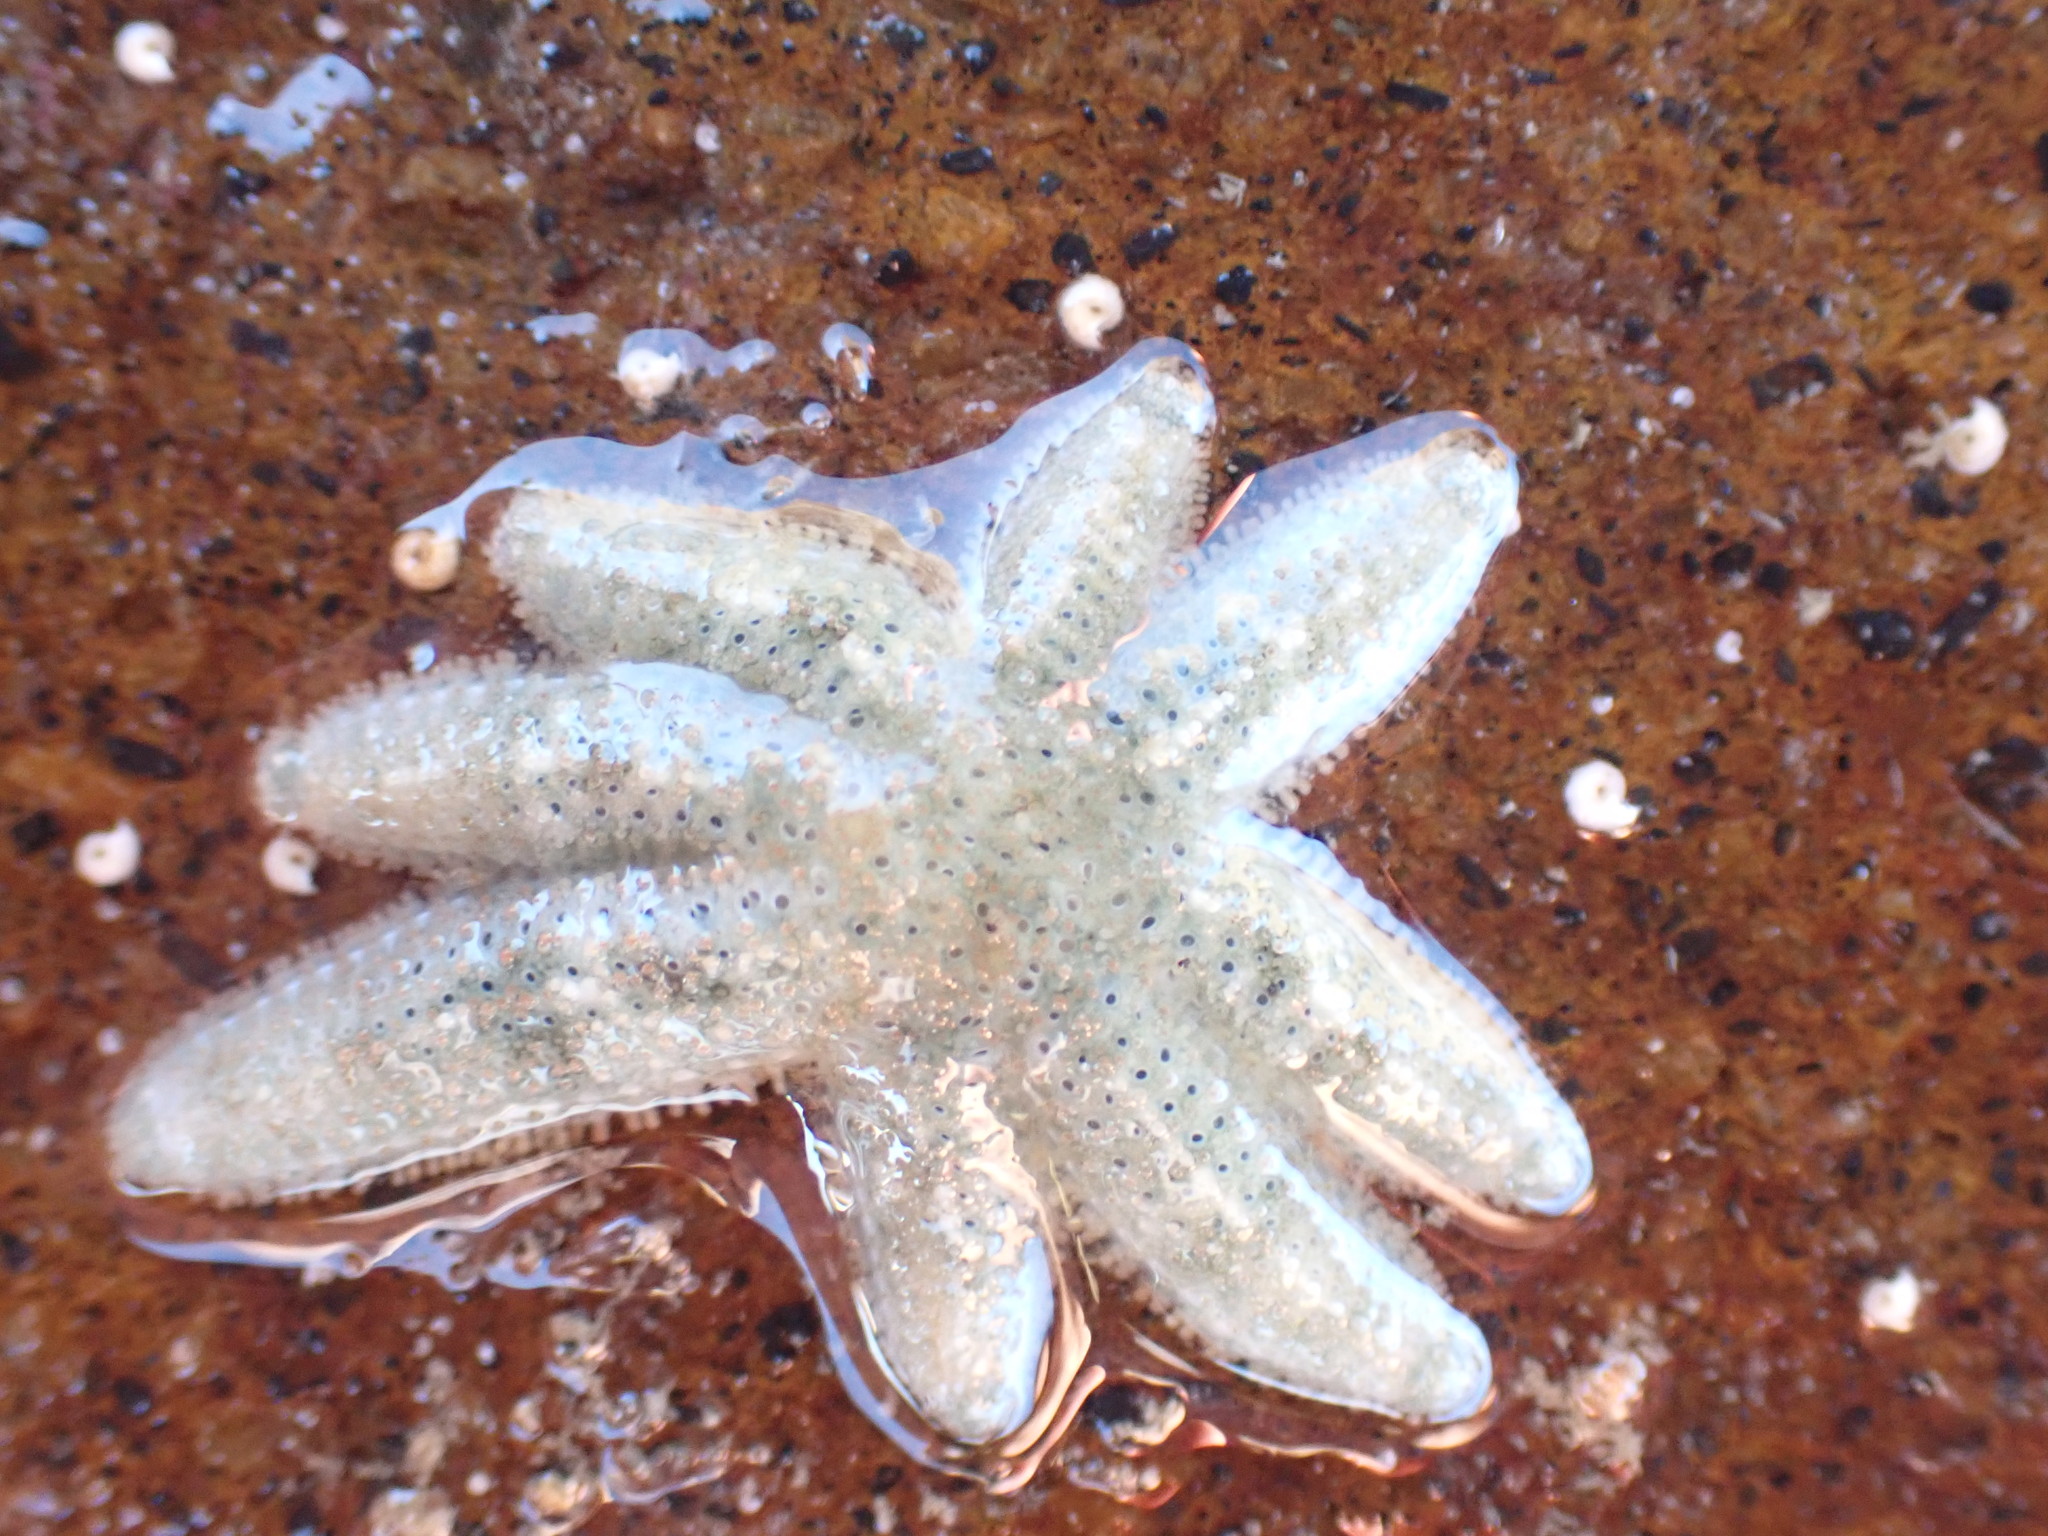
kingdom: Animalia
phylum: Echinodermata
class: Asteroidea
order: Forcipulatida
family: Stichasteridae
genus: Allostichaster
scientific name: Allostichaster polyplax
